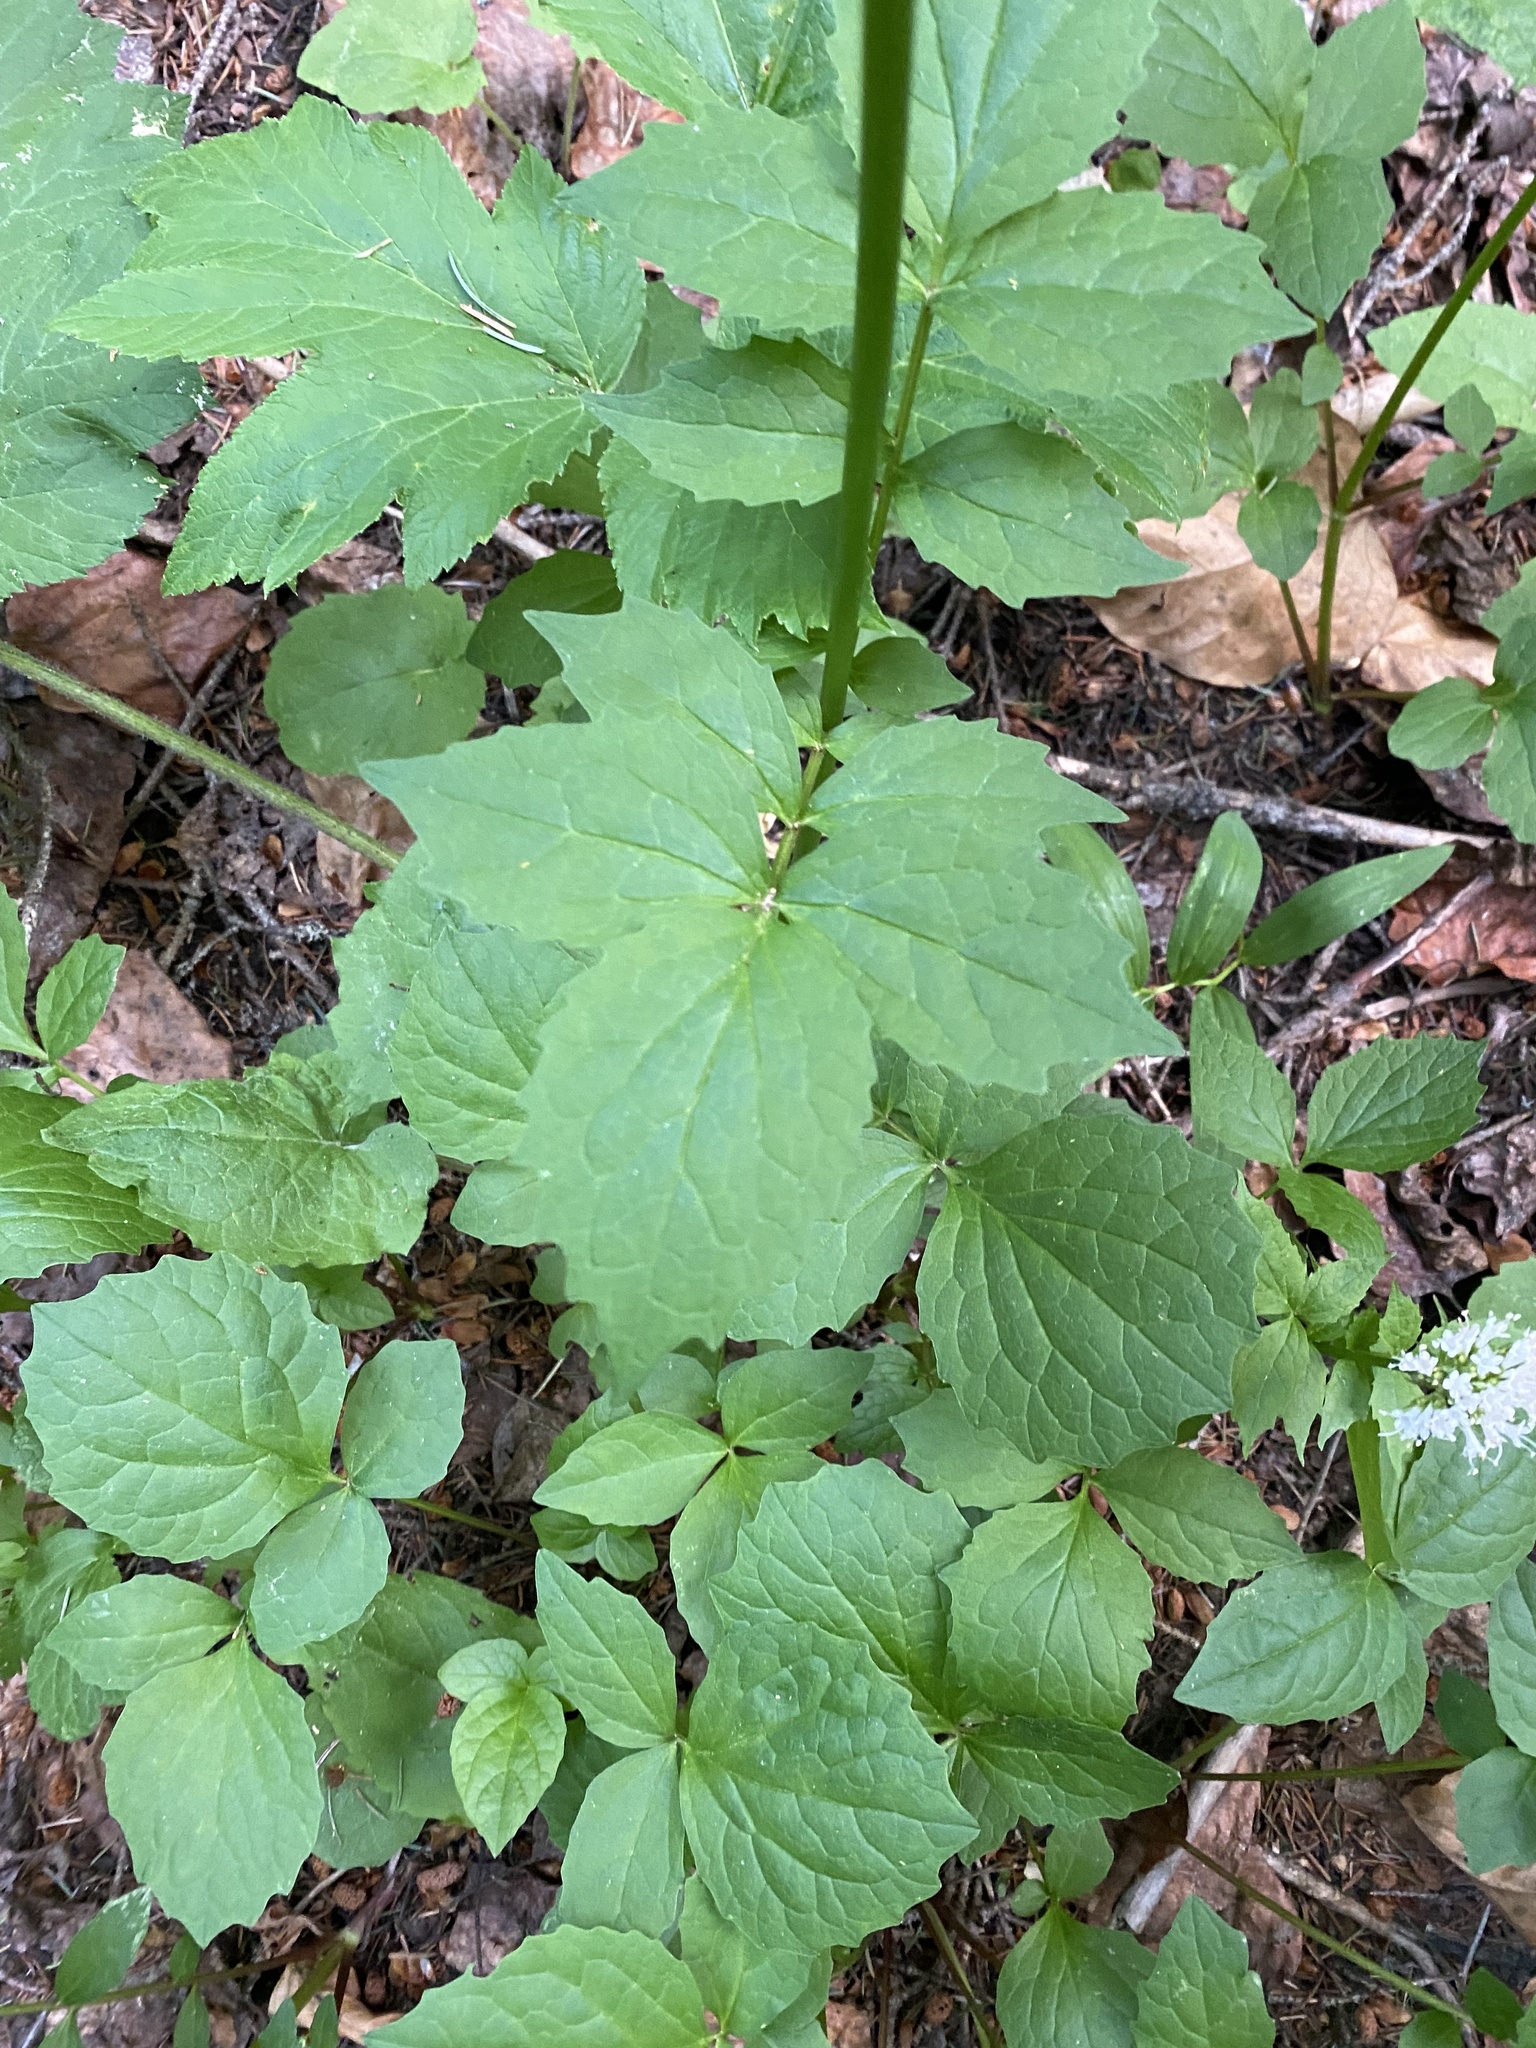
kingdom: Plantae
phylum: Tracheophyta
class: Magnoliopsida
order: Dipsacales
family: Caprifoliaceae
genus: Valeriana
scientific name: Valeriana sitchensis
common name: Pacific valerian
